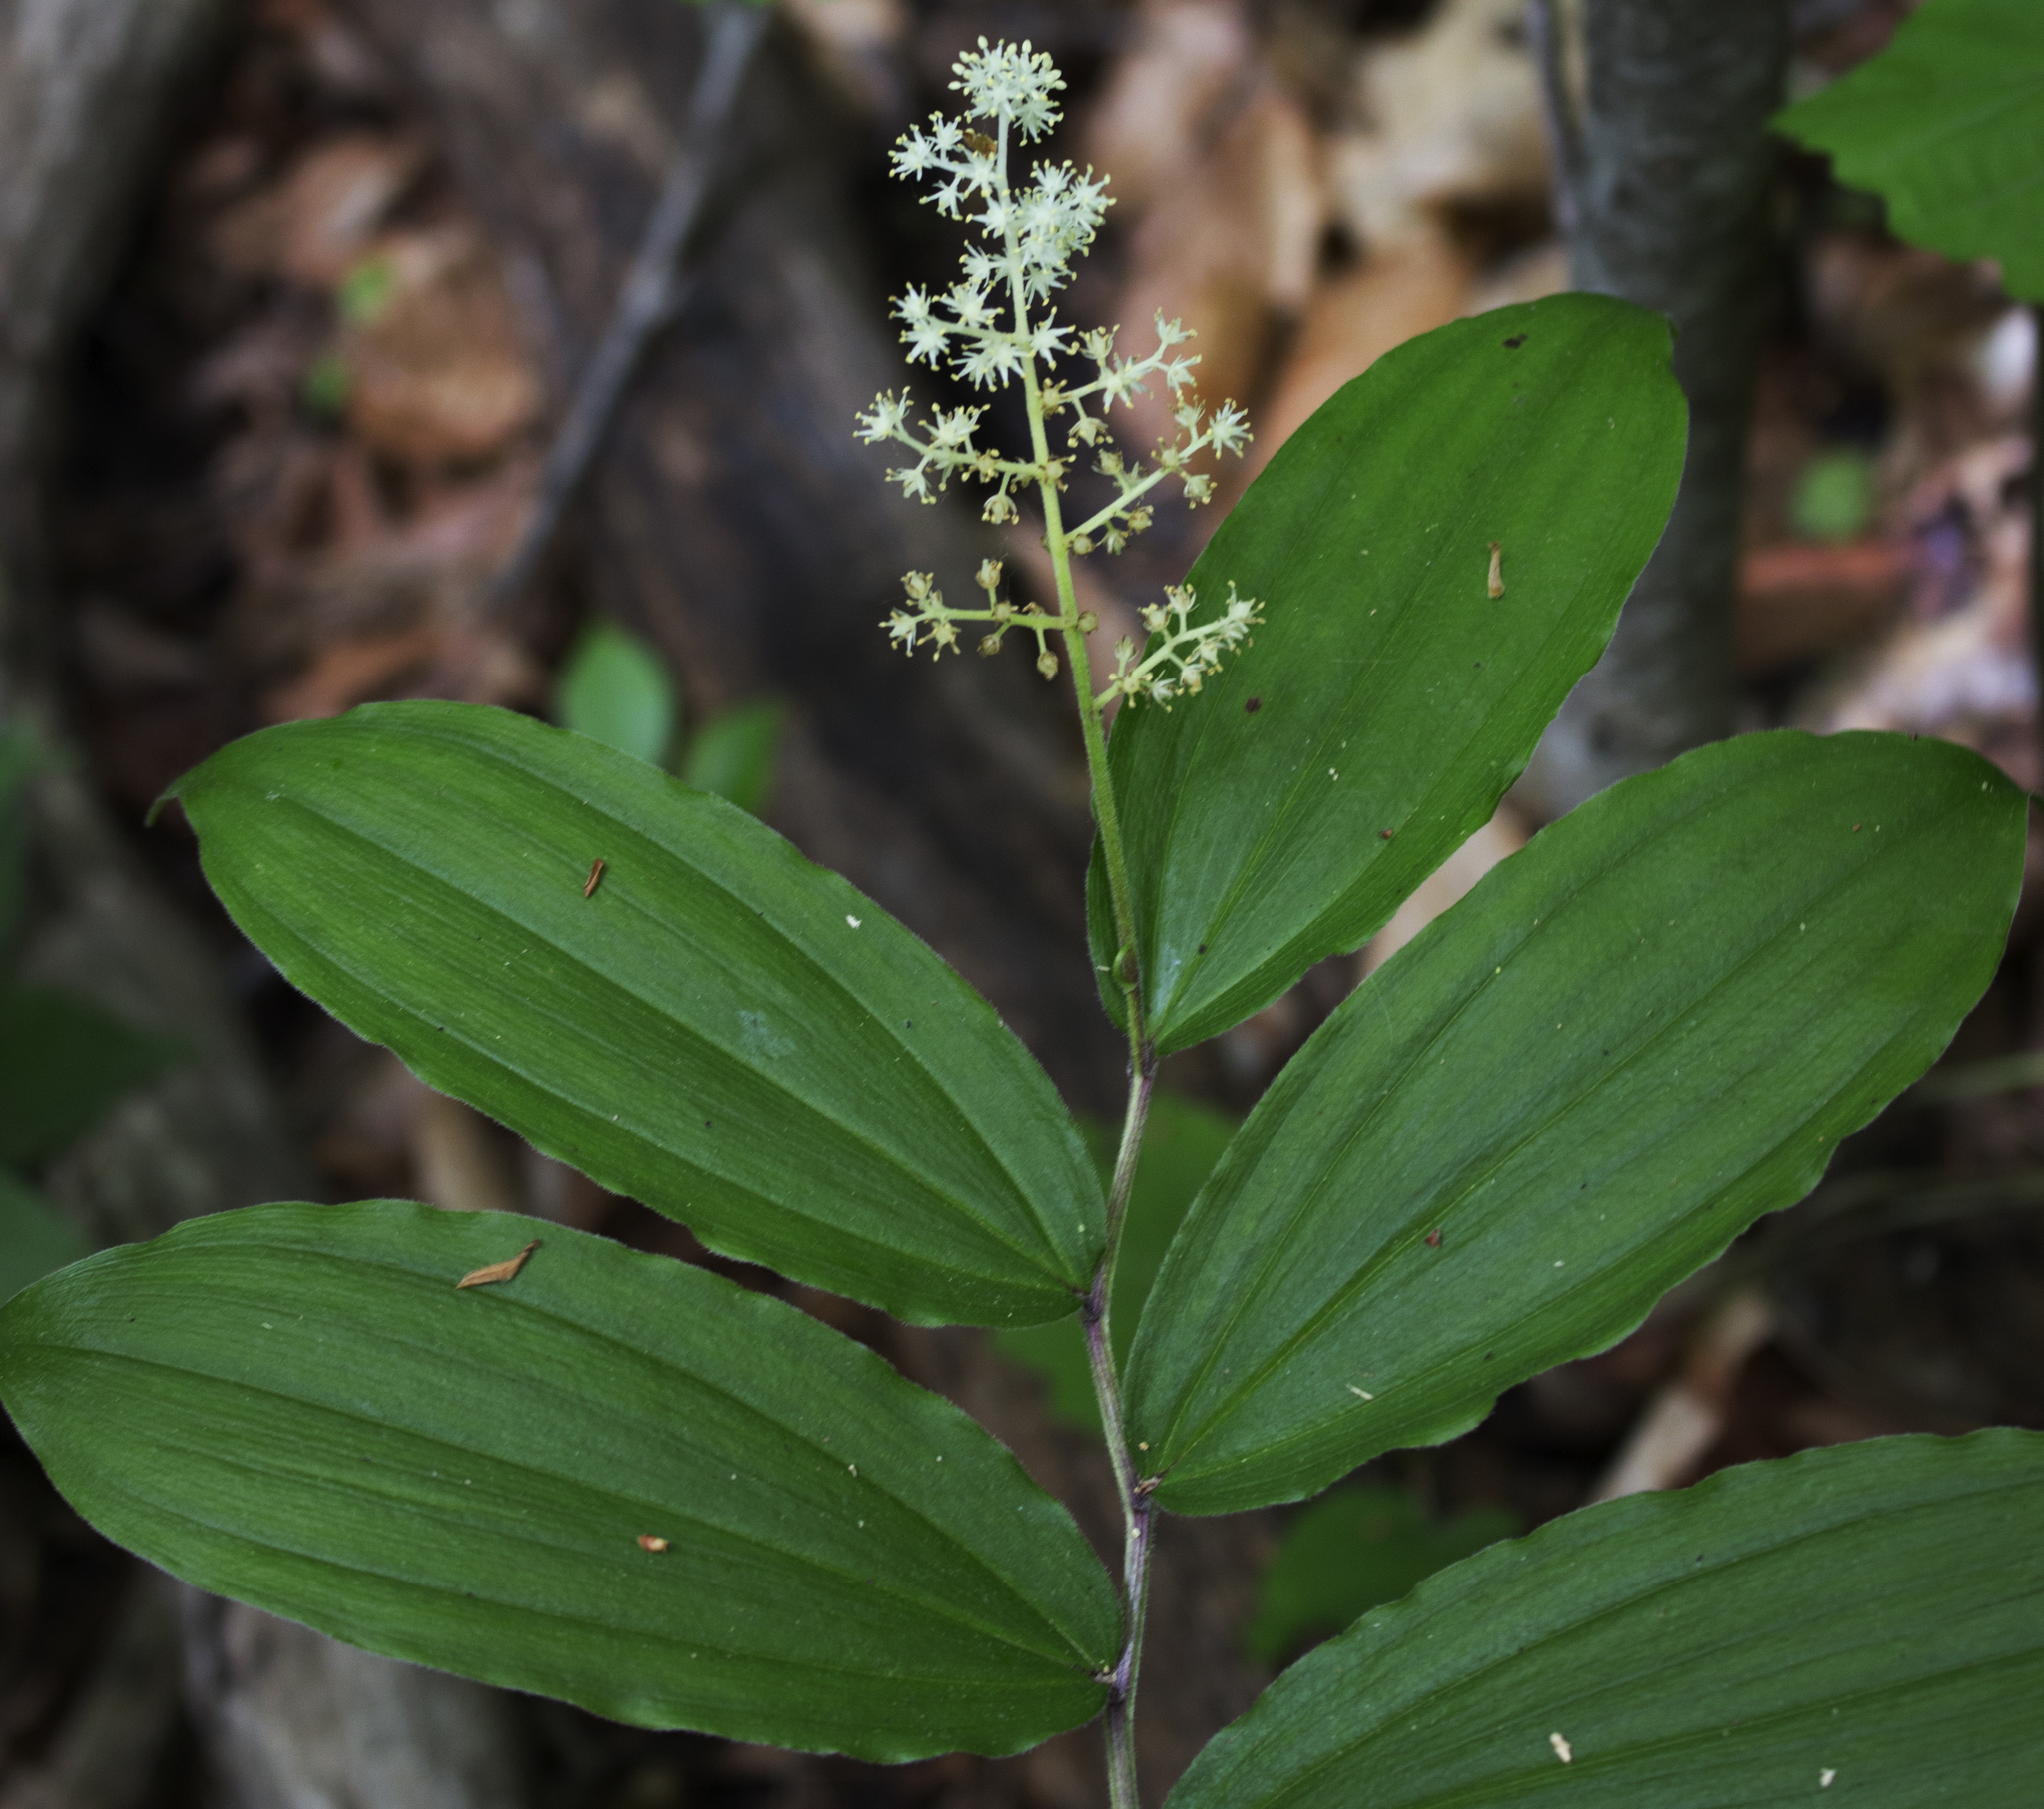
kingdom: Plantae
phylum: Tracheophyta
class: Liliopsida
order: Asparagales
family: Asparagaceae
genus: Maianthemum
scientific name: Maianthemum racemosum
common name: False spikenard
